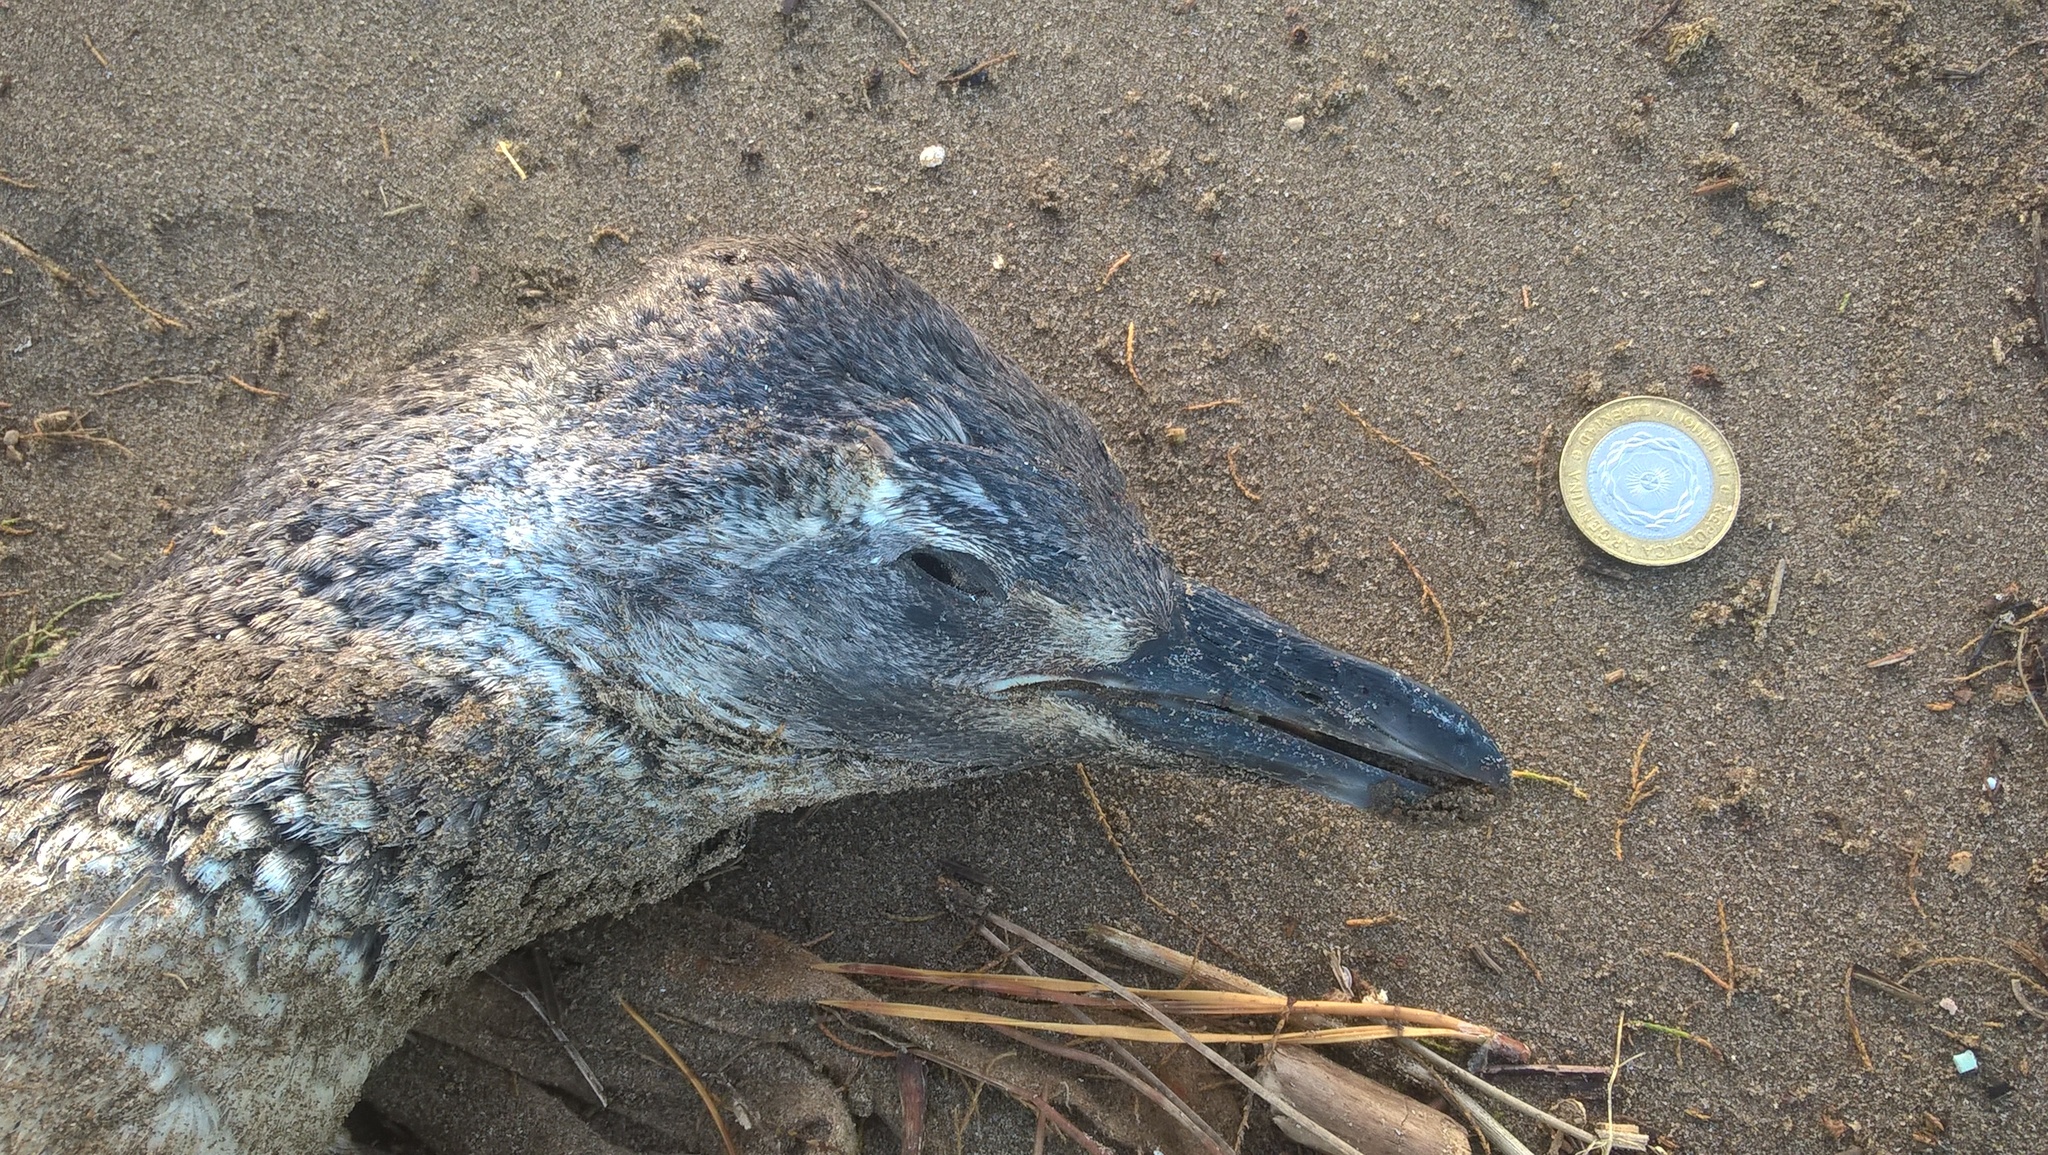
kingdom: Animalia
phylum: Chordata
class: Aves
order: Sphenisciformes
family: Spheniscidae
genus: Spheniscus
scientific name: Spheniscus magellanicus
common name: Magellanic penguin
